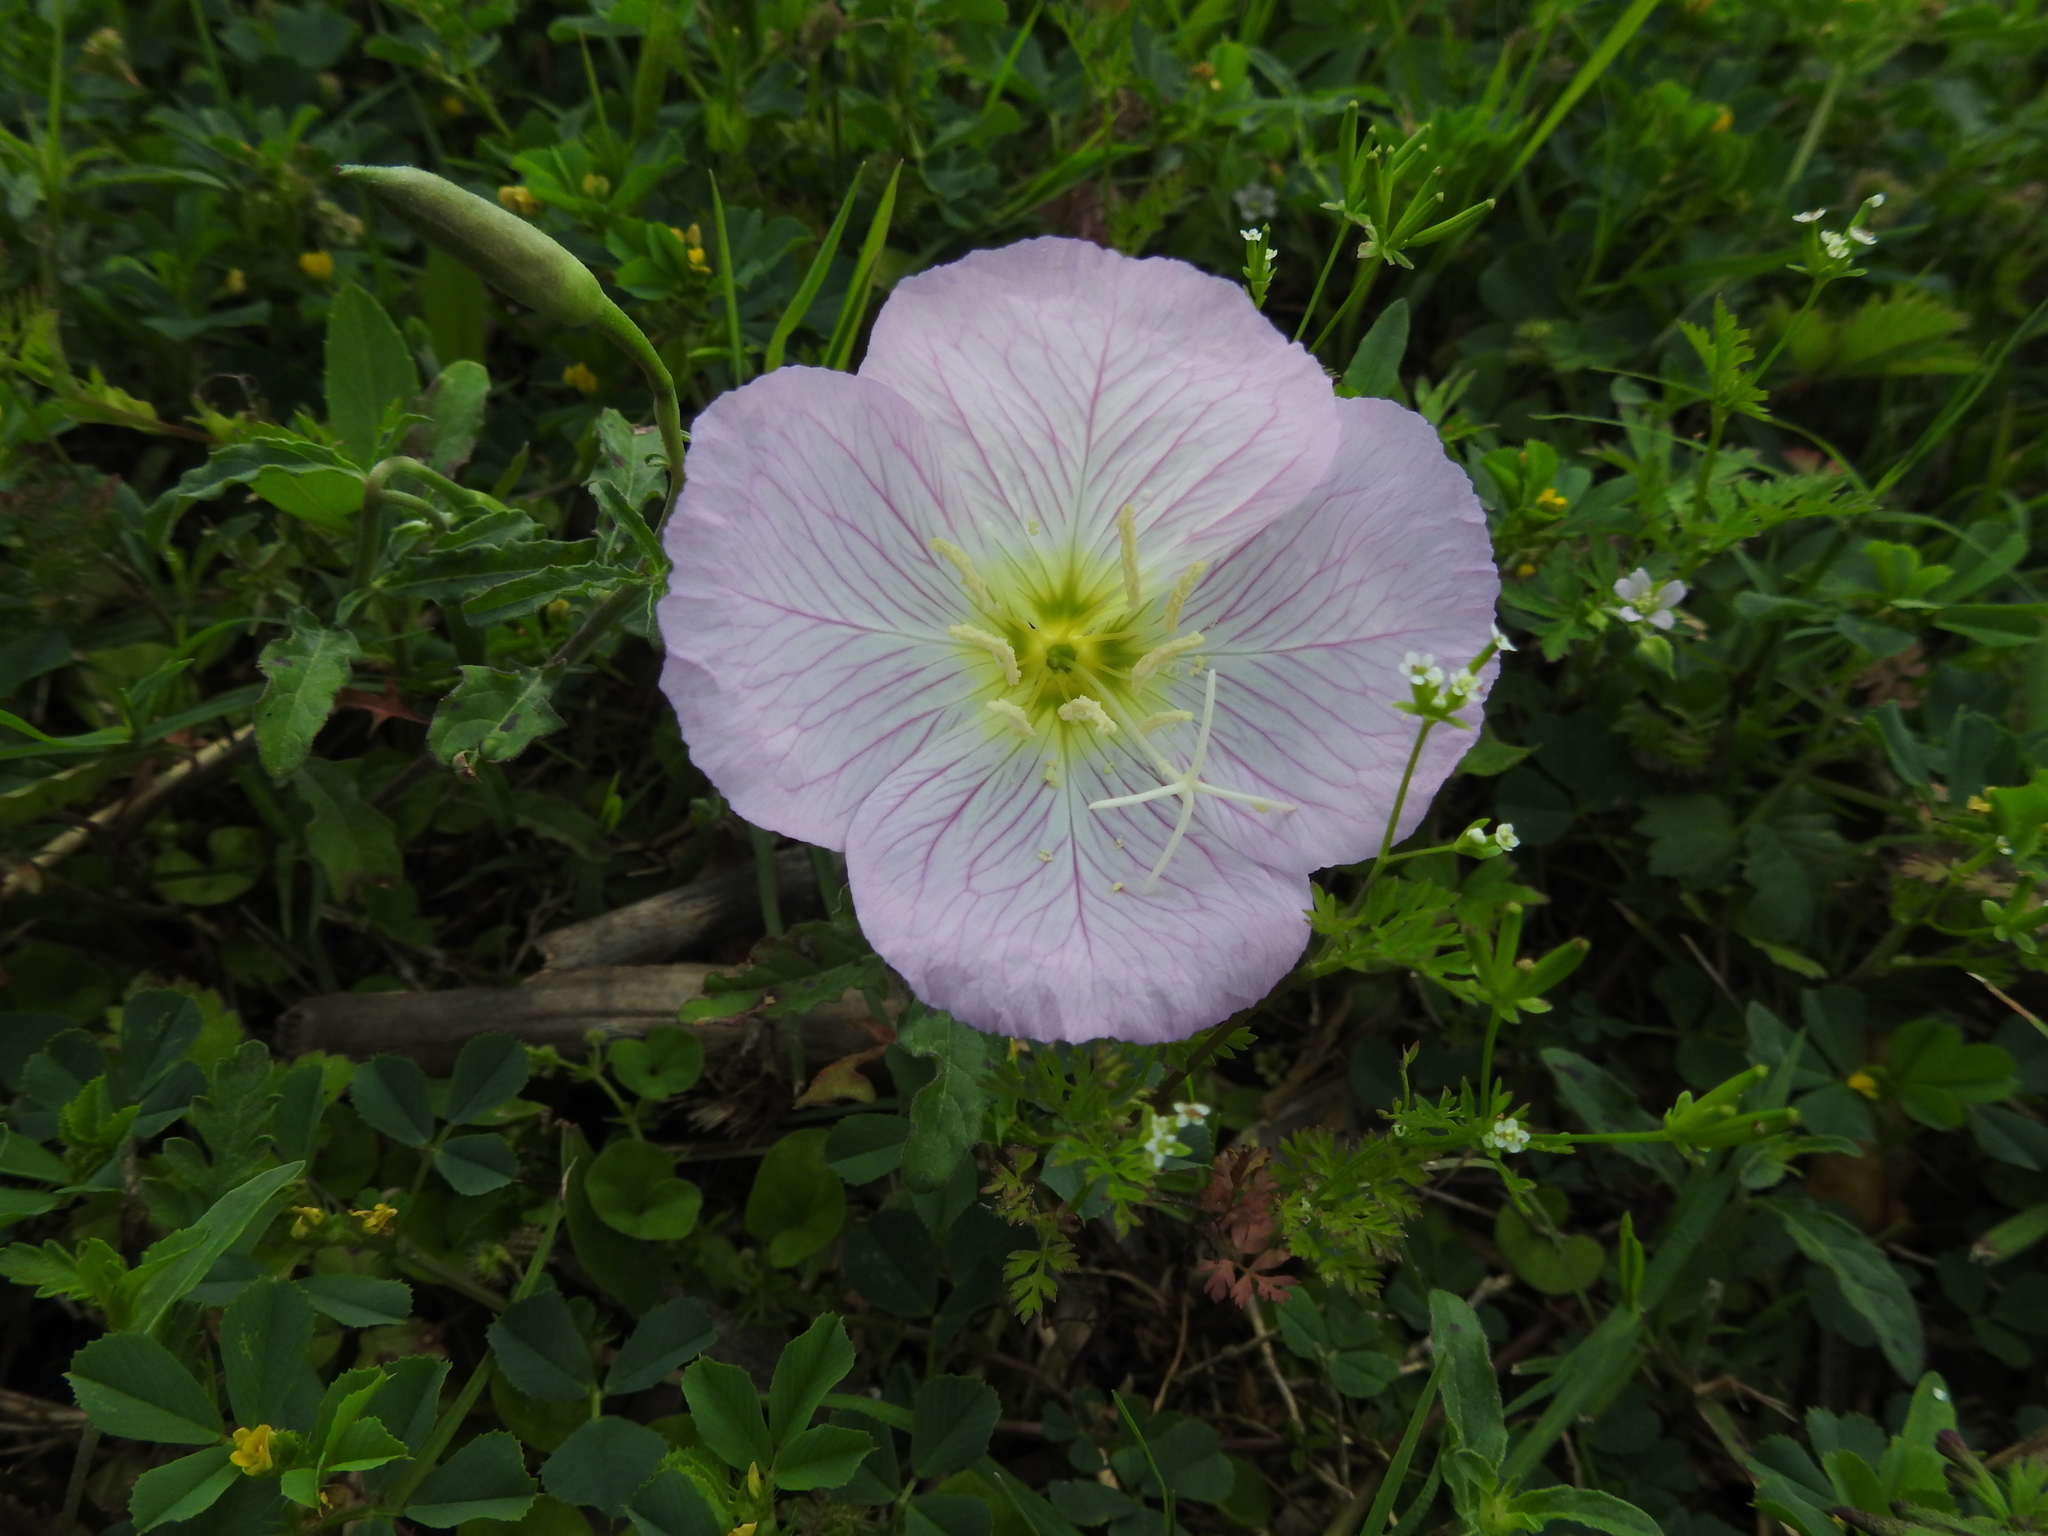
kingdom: Plantae
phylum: Tracheophyta
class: Magnoliopsida
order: Myrtales
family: Onagraceae
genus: Oenothera
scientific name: Oenothera speciosa
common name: White evening-primrose
